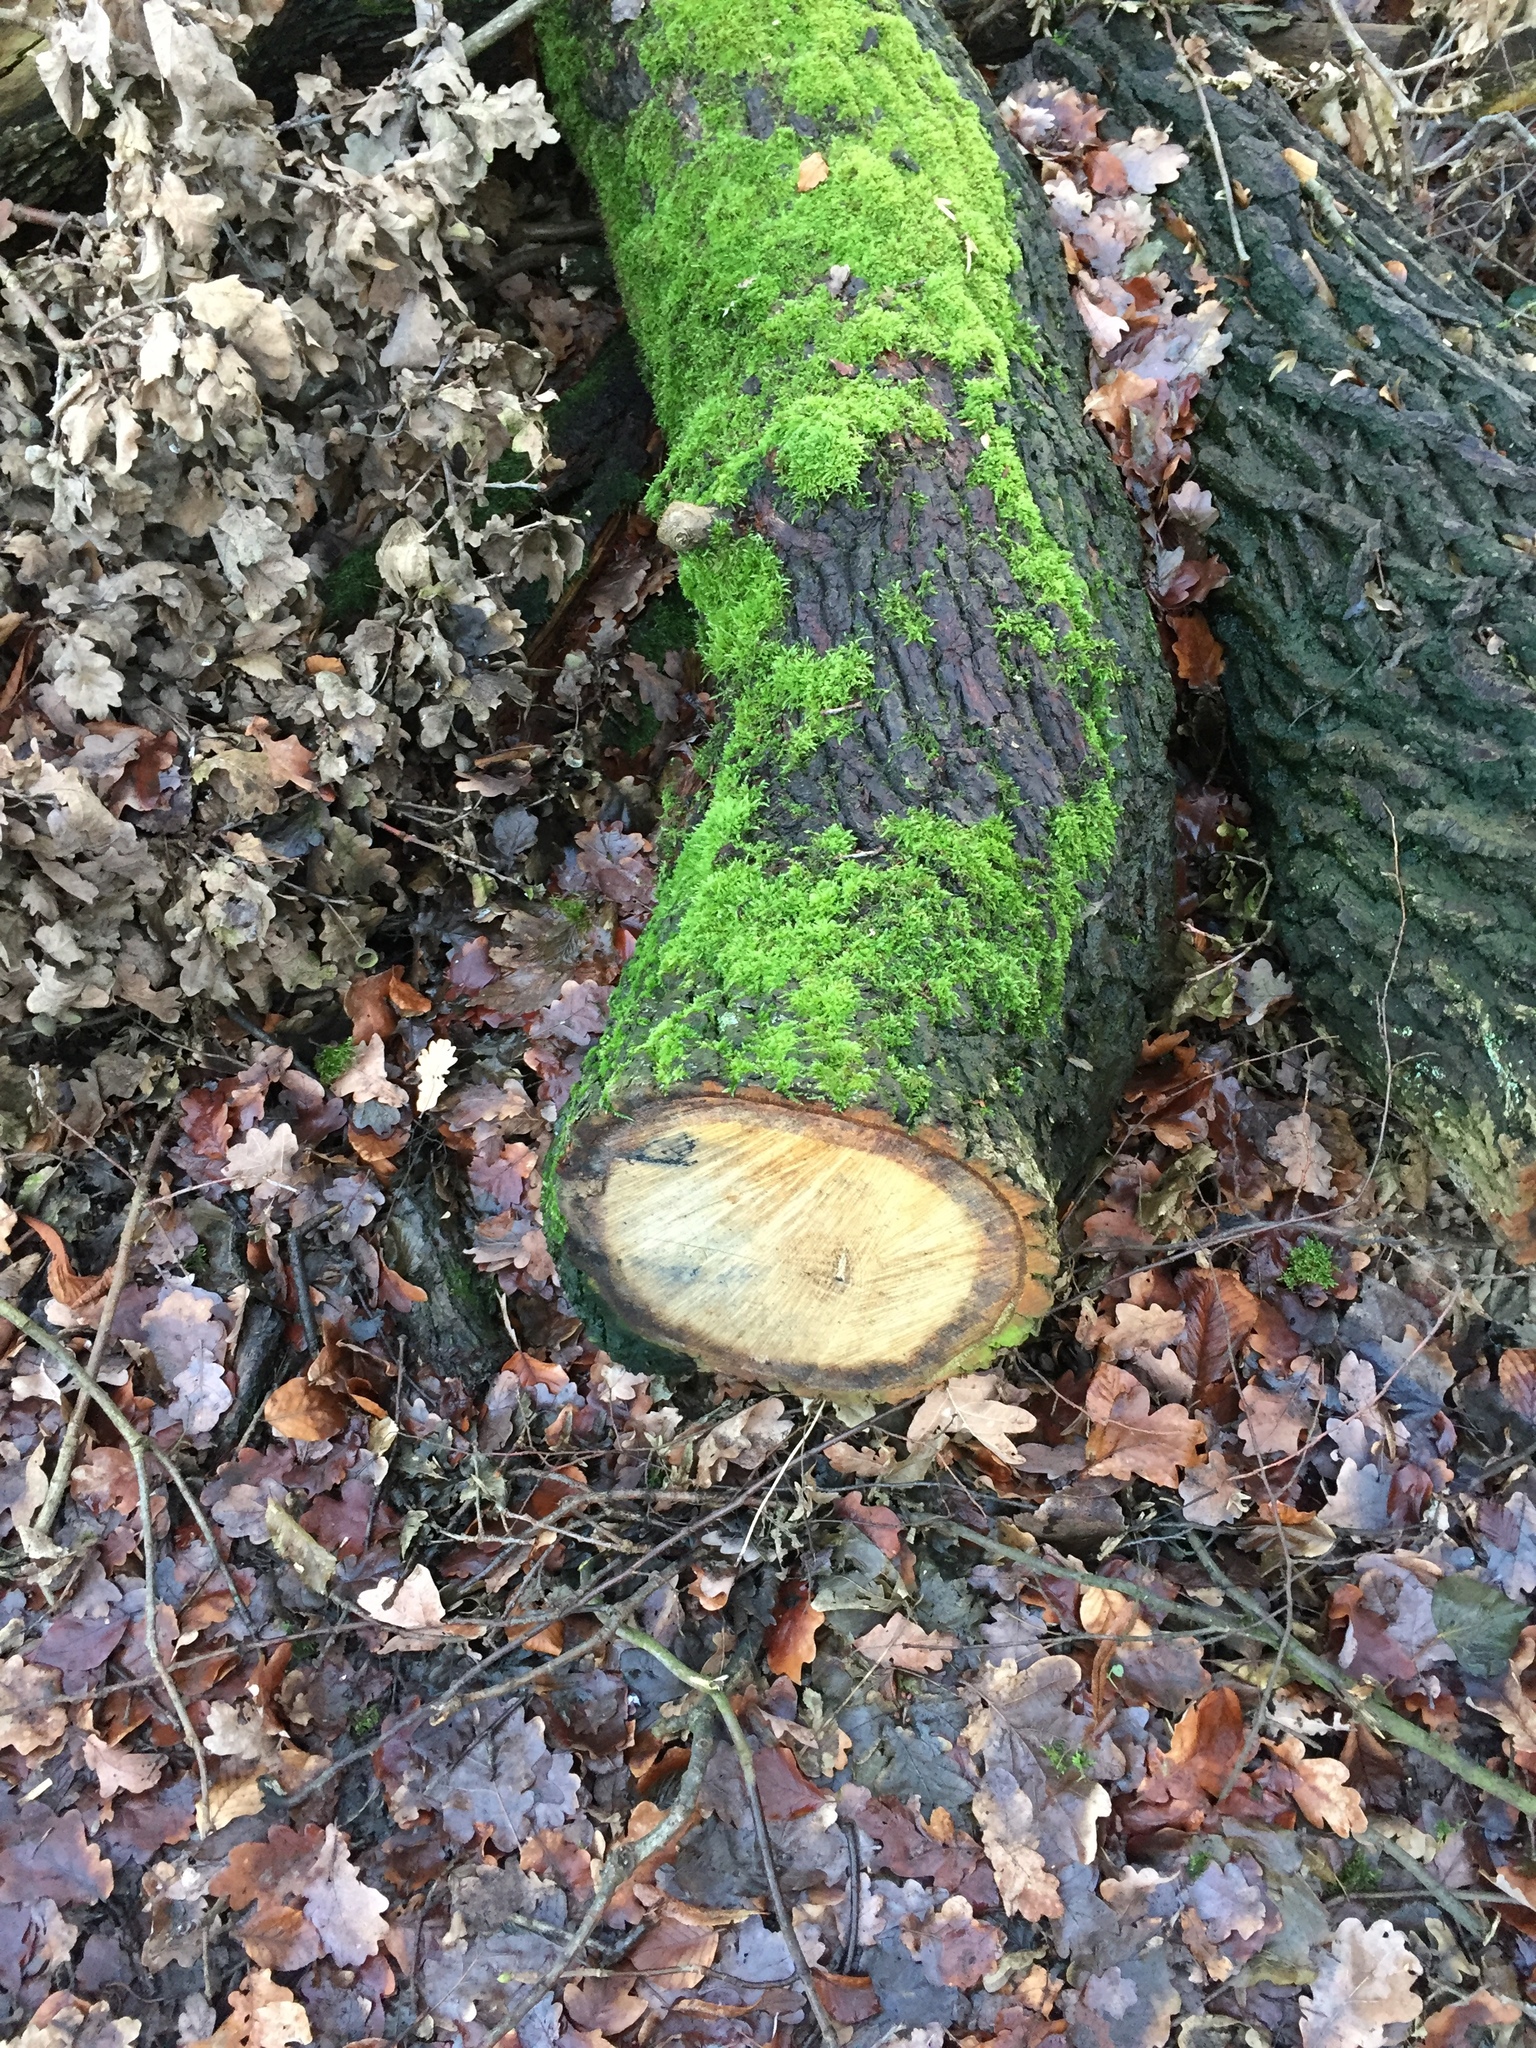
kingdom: Plantae
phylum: Bryophyta
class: Bryopsida
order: Hypnales
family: Hypnaceae
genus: Hypnum
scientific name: Hypnum cupressiforme
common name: Cypress-leaved plait-moss
